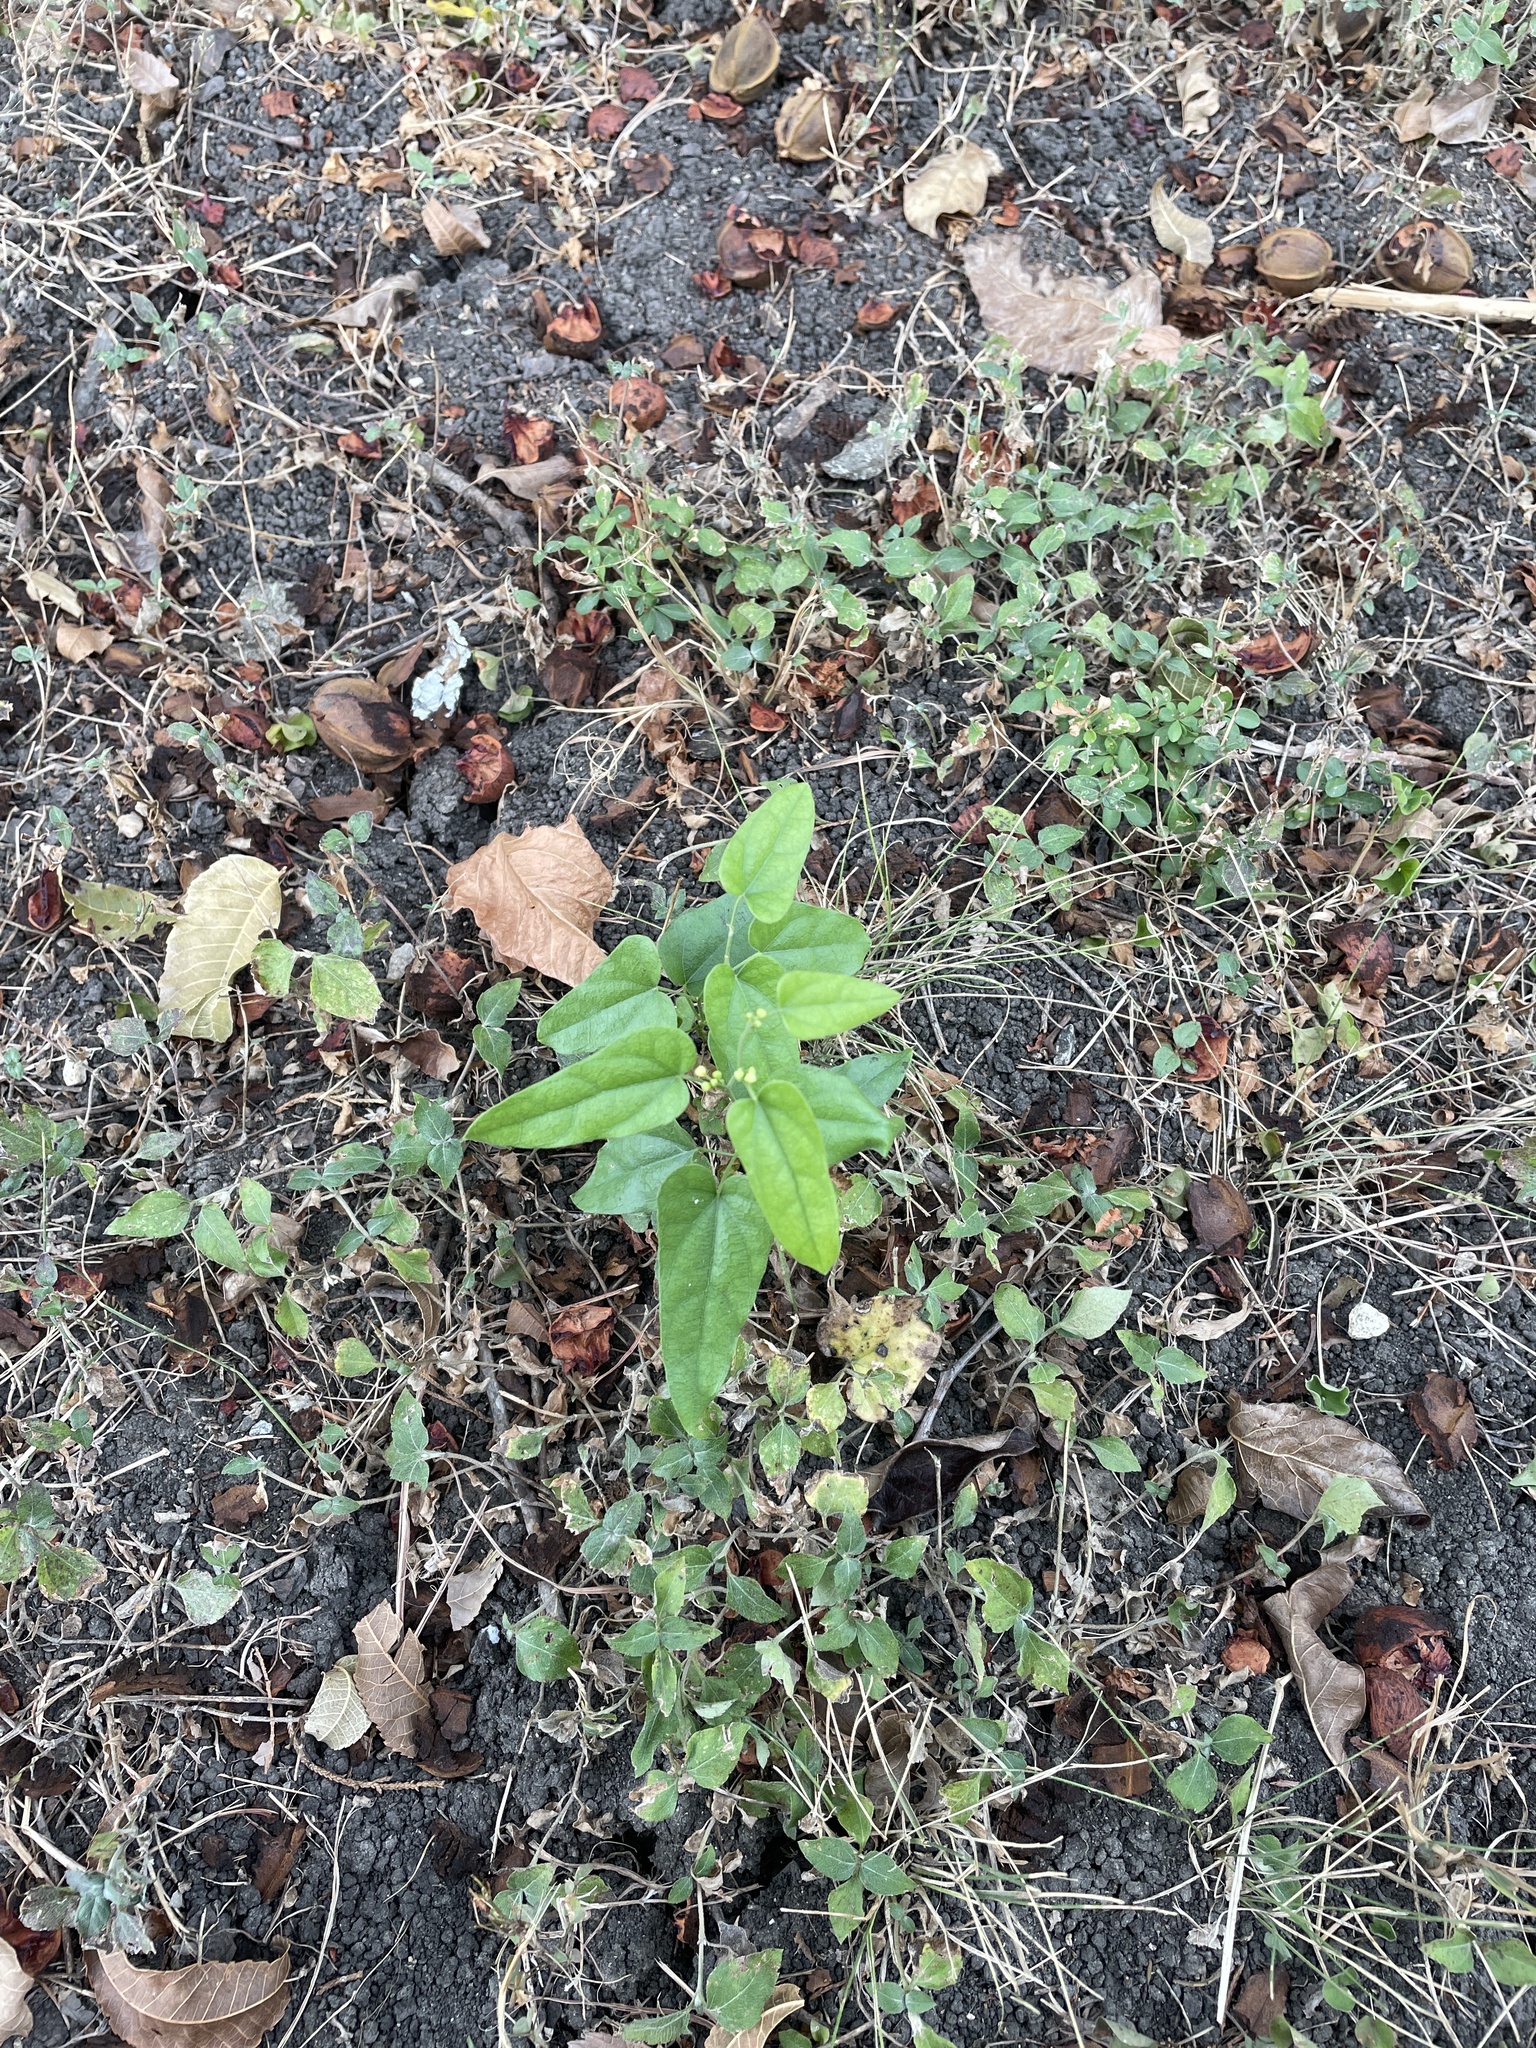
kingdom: Plantae
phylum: Tracheophyta
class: Magnoliopsida
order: Ranunculales
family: Menispermaceae
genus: Cocculus
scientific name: Cocculus carolinus
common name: Carolina moonseed
